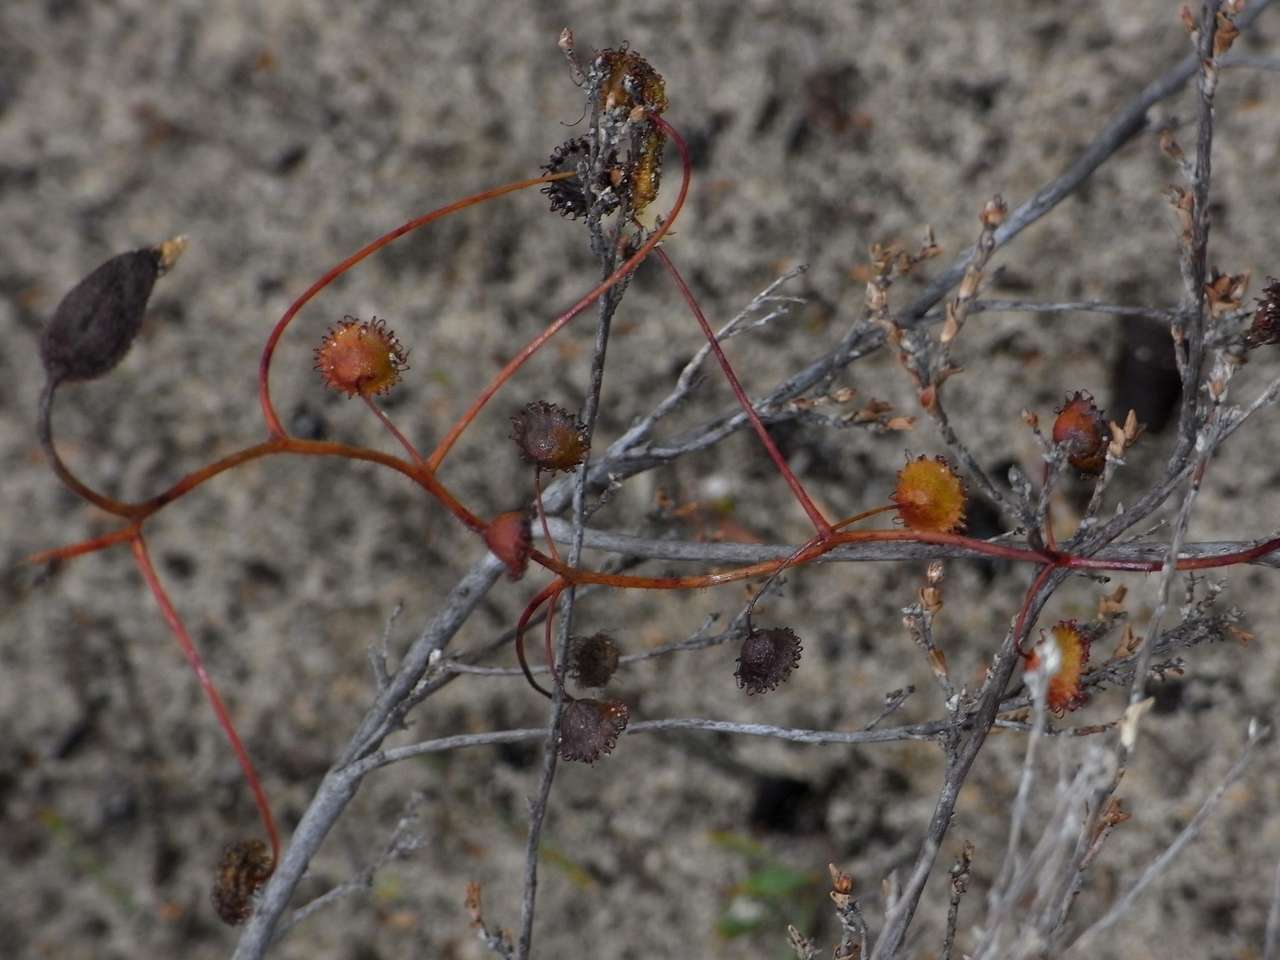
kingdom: Plantae
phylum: Tracheophyta
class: Magnoliopsida
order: Caryophyllales
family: Droseraceae
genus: Drosera
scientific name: Drosera planchonii
